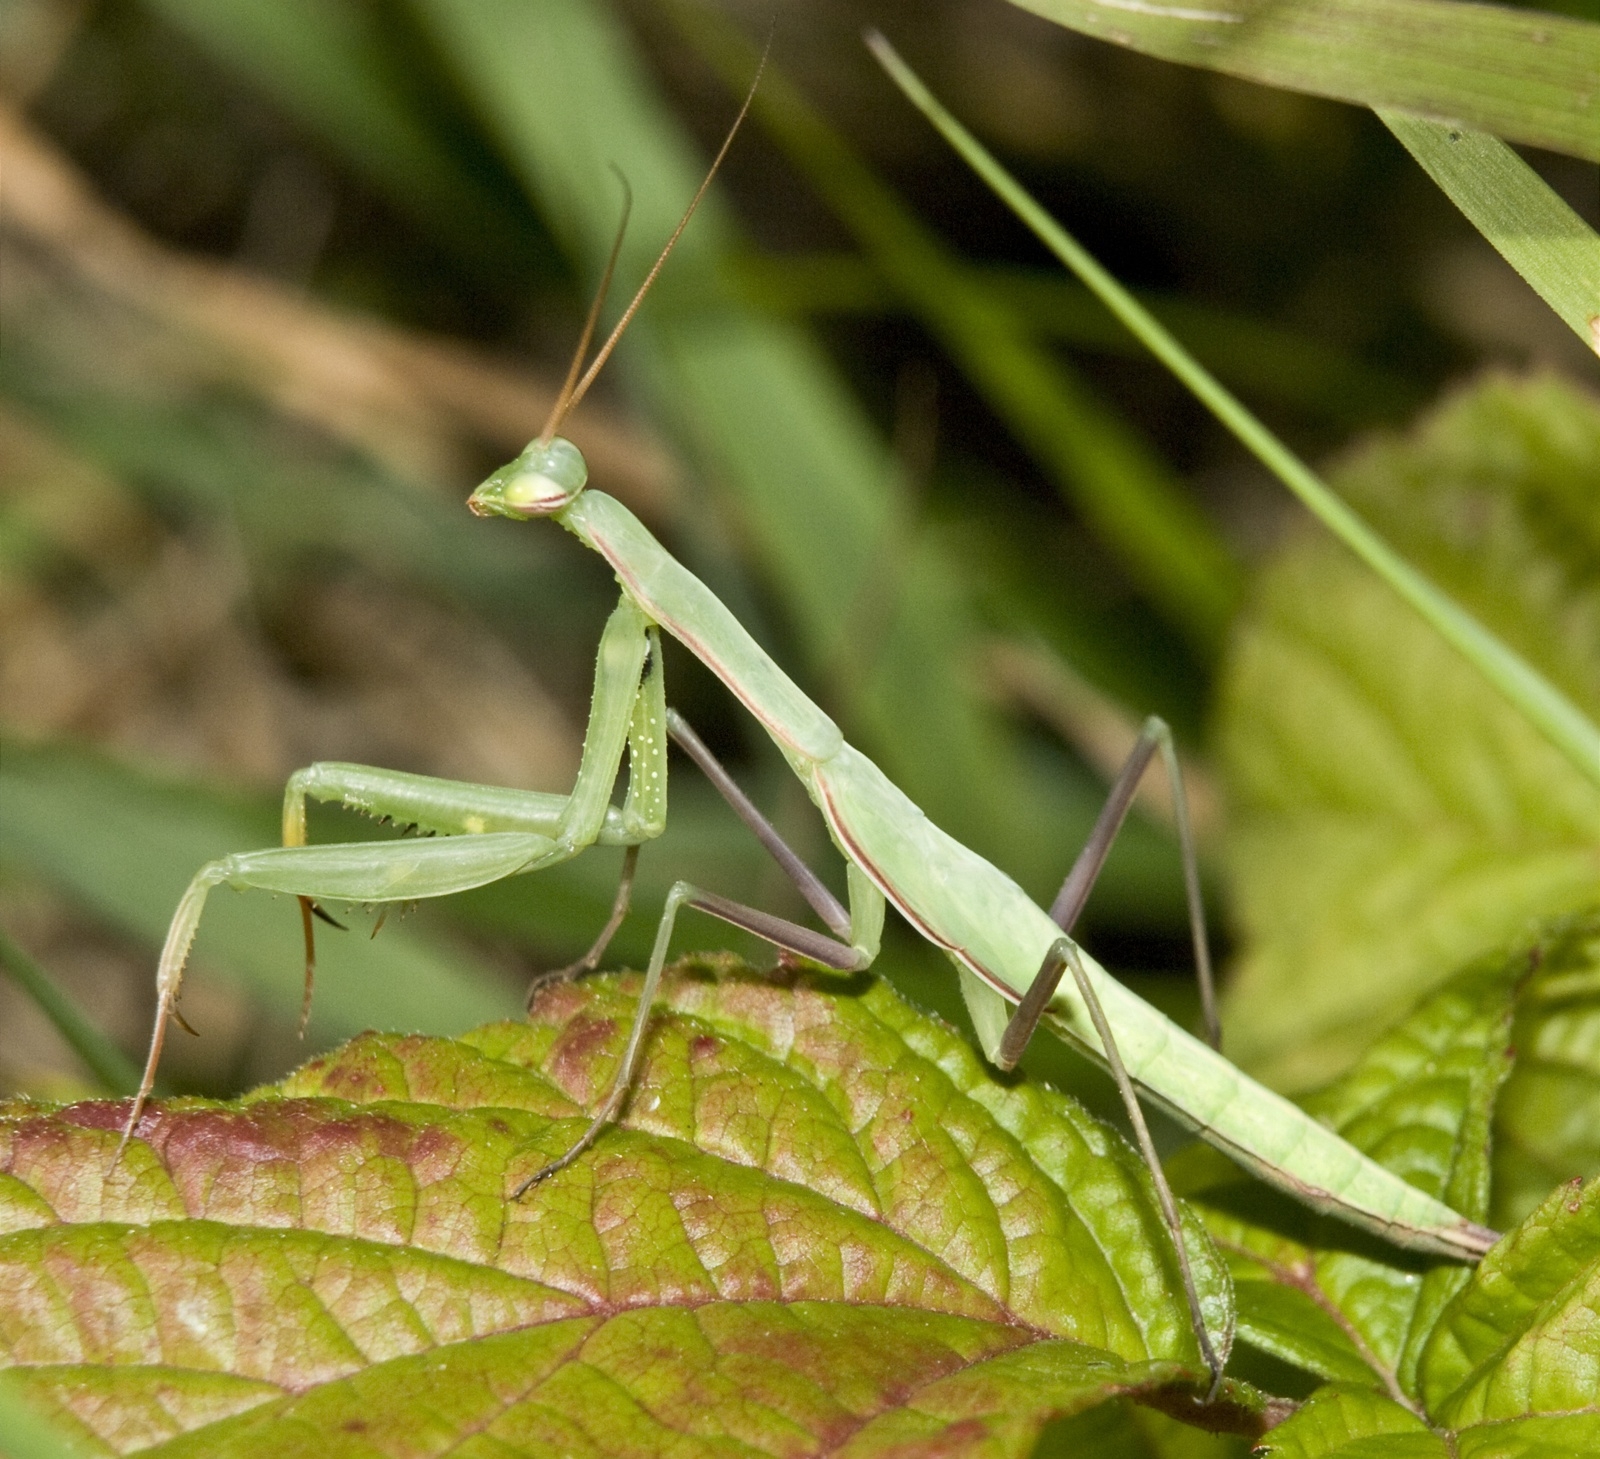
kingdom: Animalia
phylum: Arthropoda
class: Insecta
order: Mantodea
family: Mantidae
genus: Mantis
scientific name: Mantis religiosa
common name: Praying mantis
